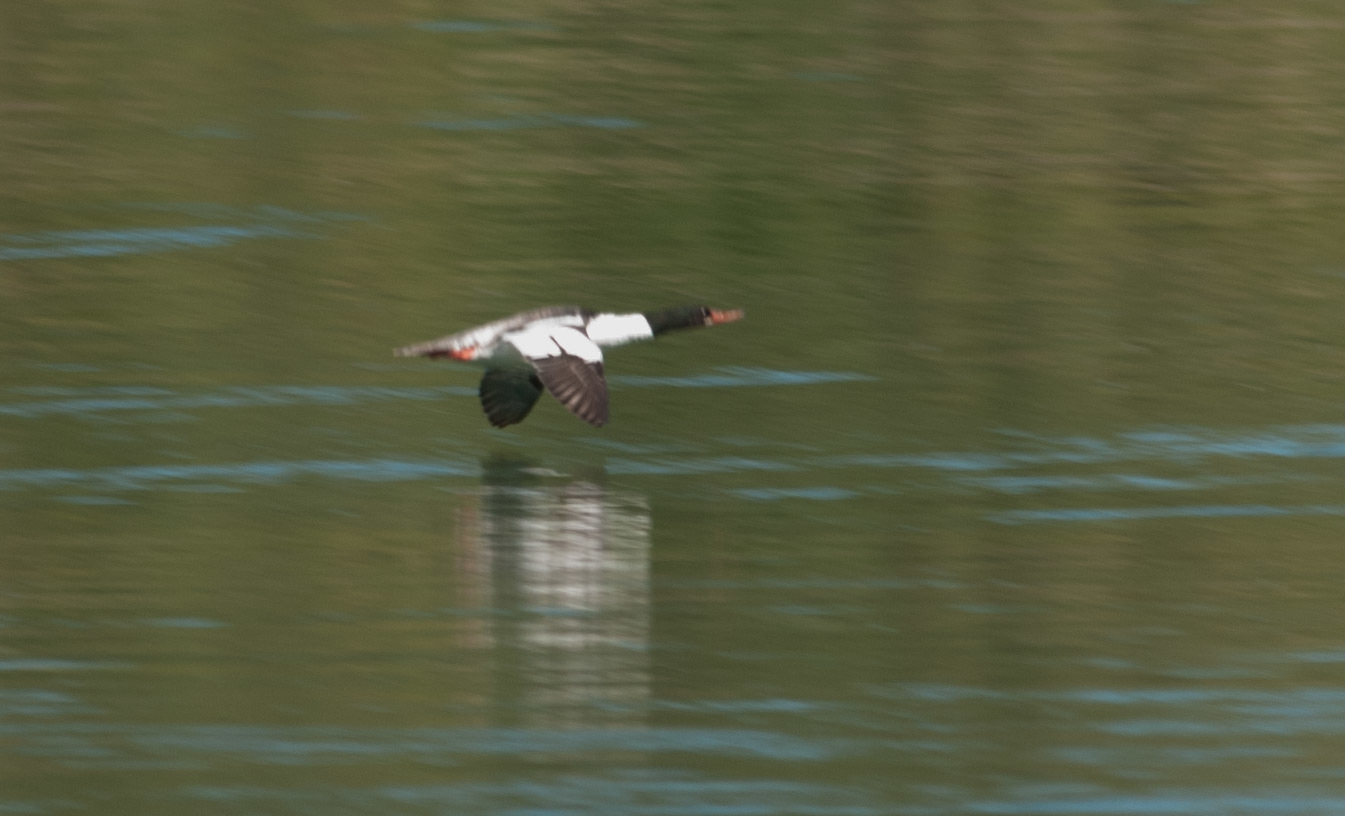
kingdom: Animalia
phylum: Chordata
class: Aves
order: Anseriformes
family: Anatidae
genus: Mergus
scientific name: Mergus merganser
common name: Common merganser
